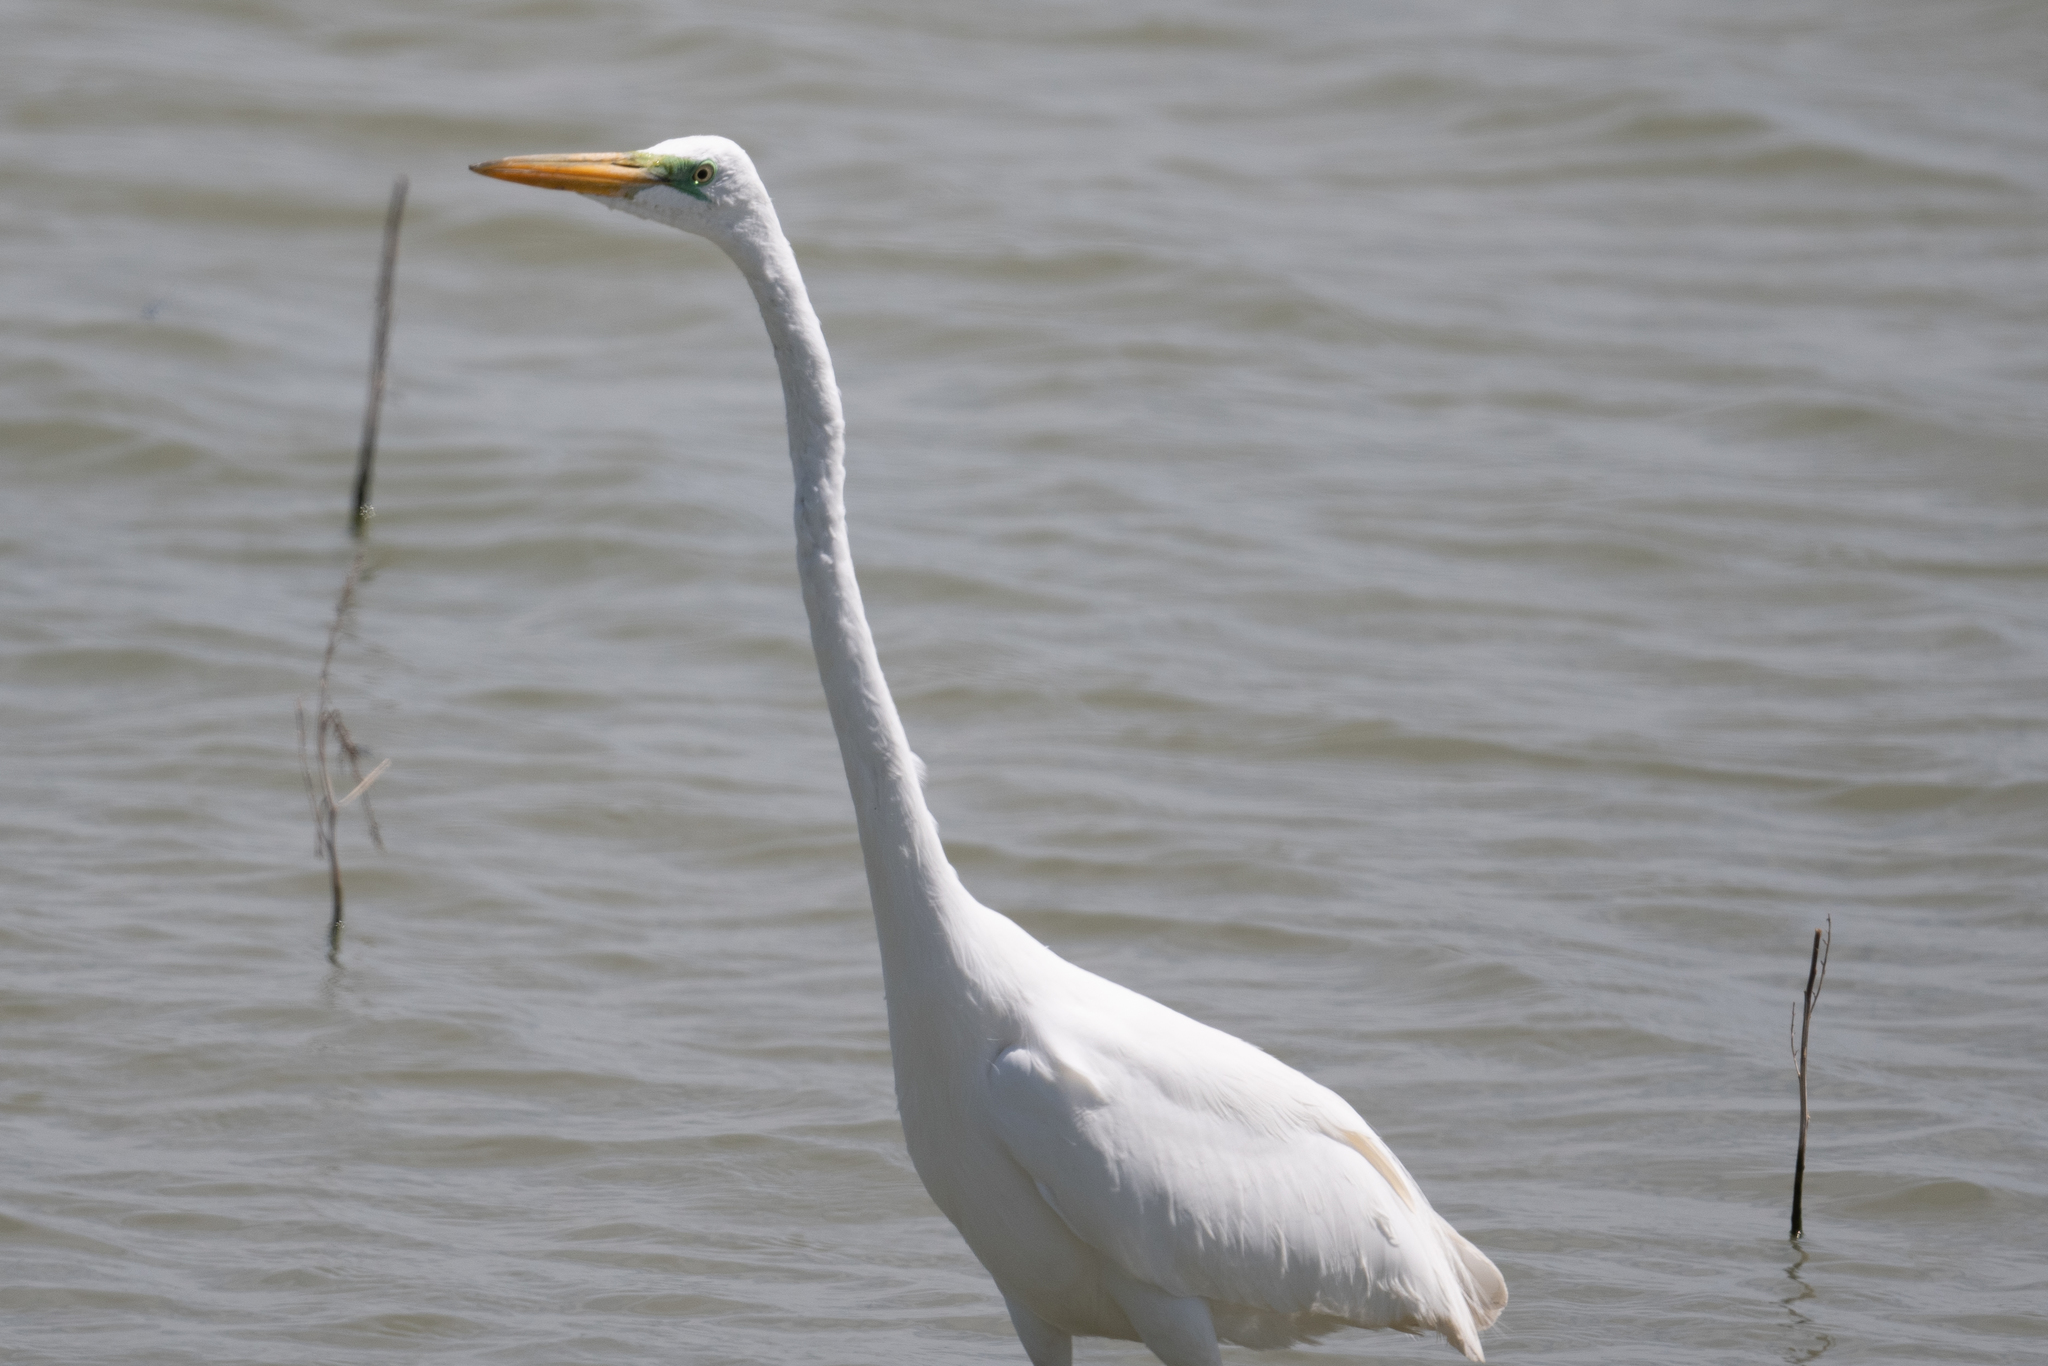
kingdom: Animalia
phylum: Chordata
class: Aves
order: Pelecaniformes
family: Ardeidae
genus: Ardea
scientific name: Ardea alba
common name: Great egret
